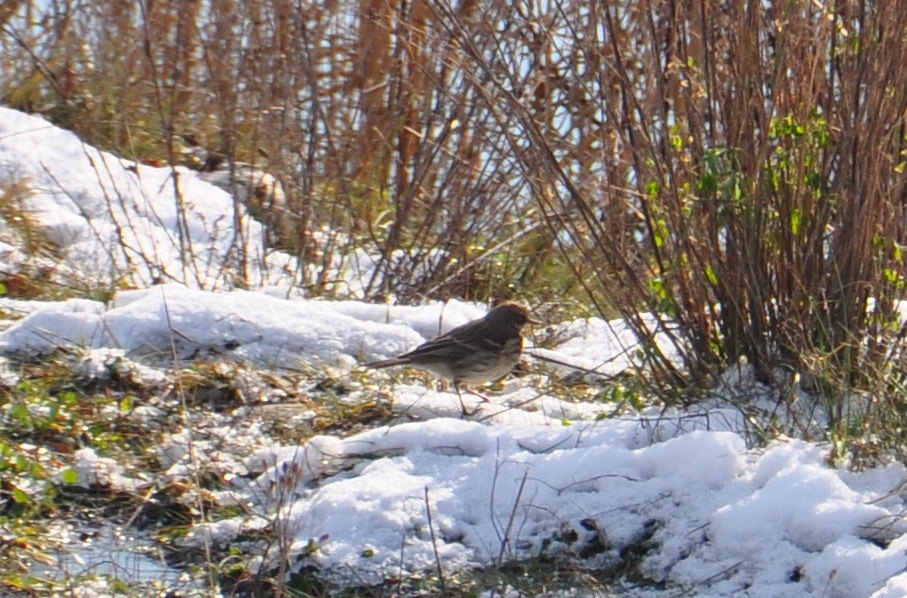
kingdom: Animalia
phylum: Chordata
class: Aves
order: Passeriformes
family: Motacillidae
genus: Anthus
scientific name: Anthus spinoletta
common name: Water pipit
